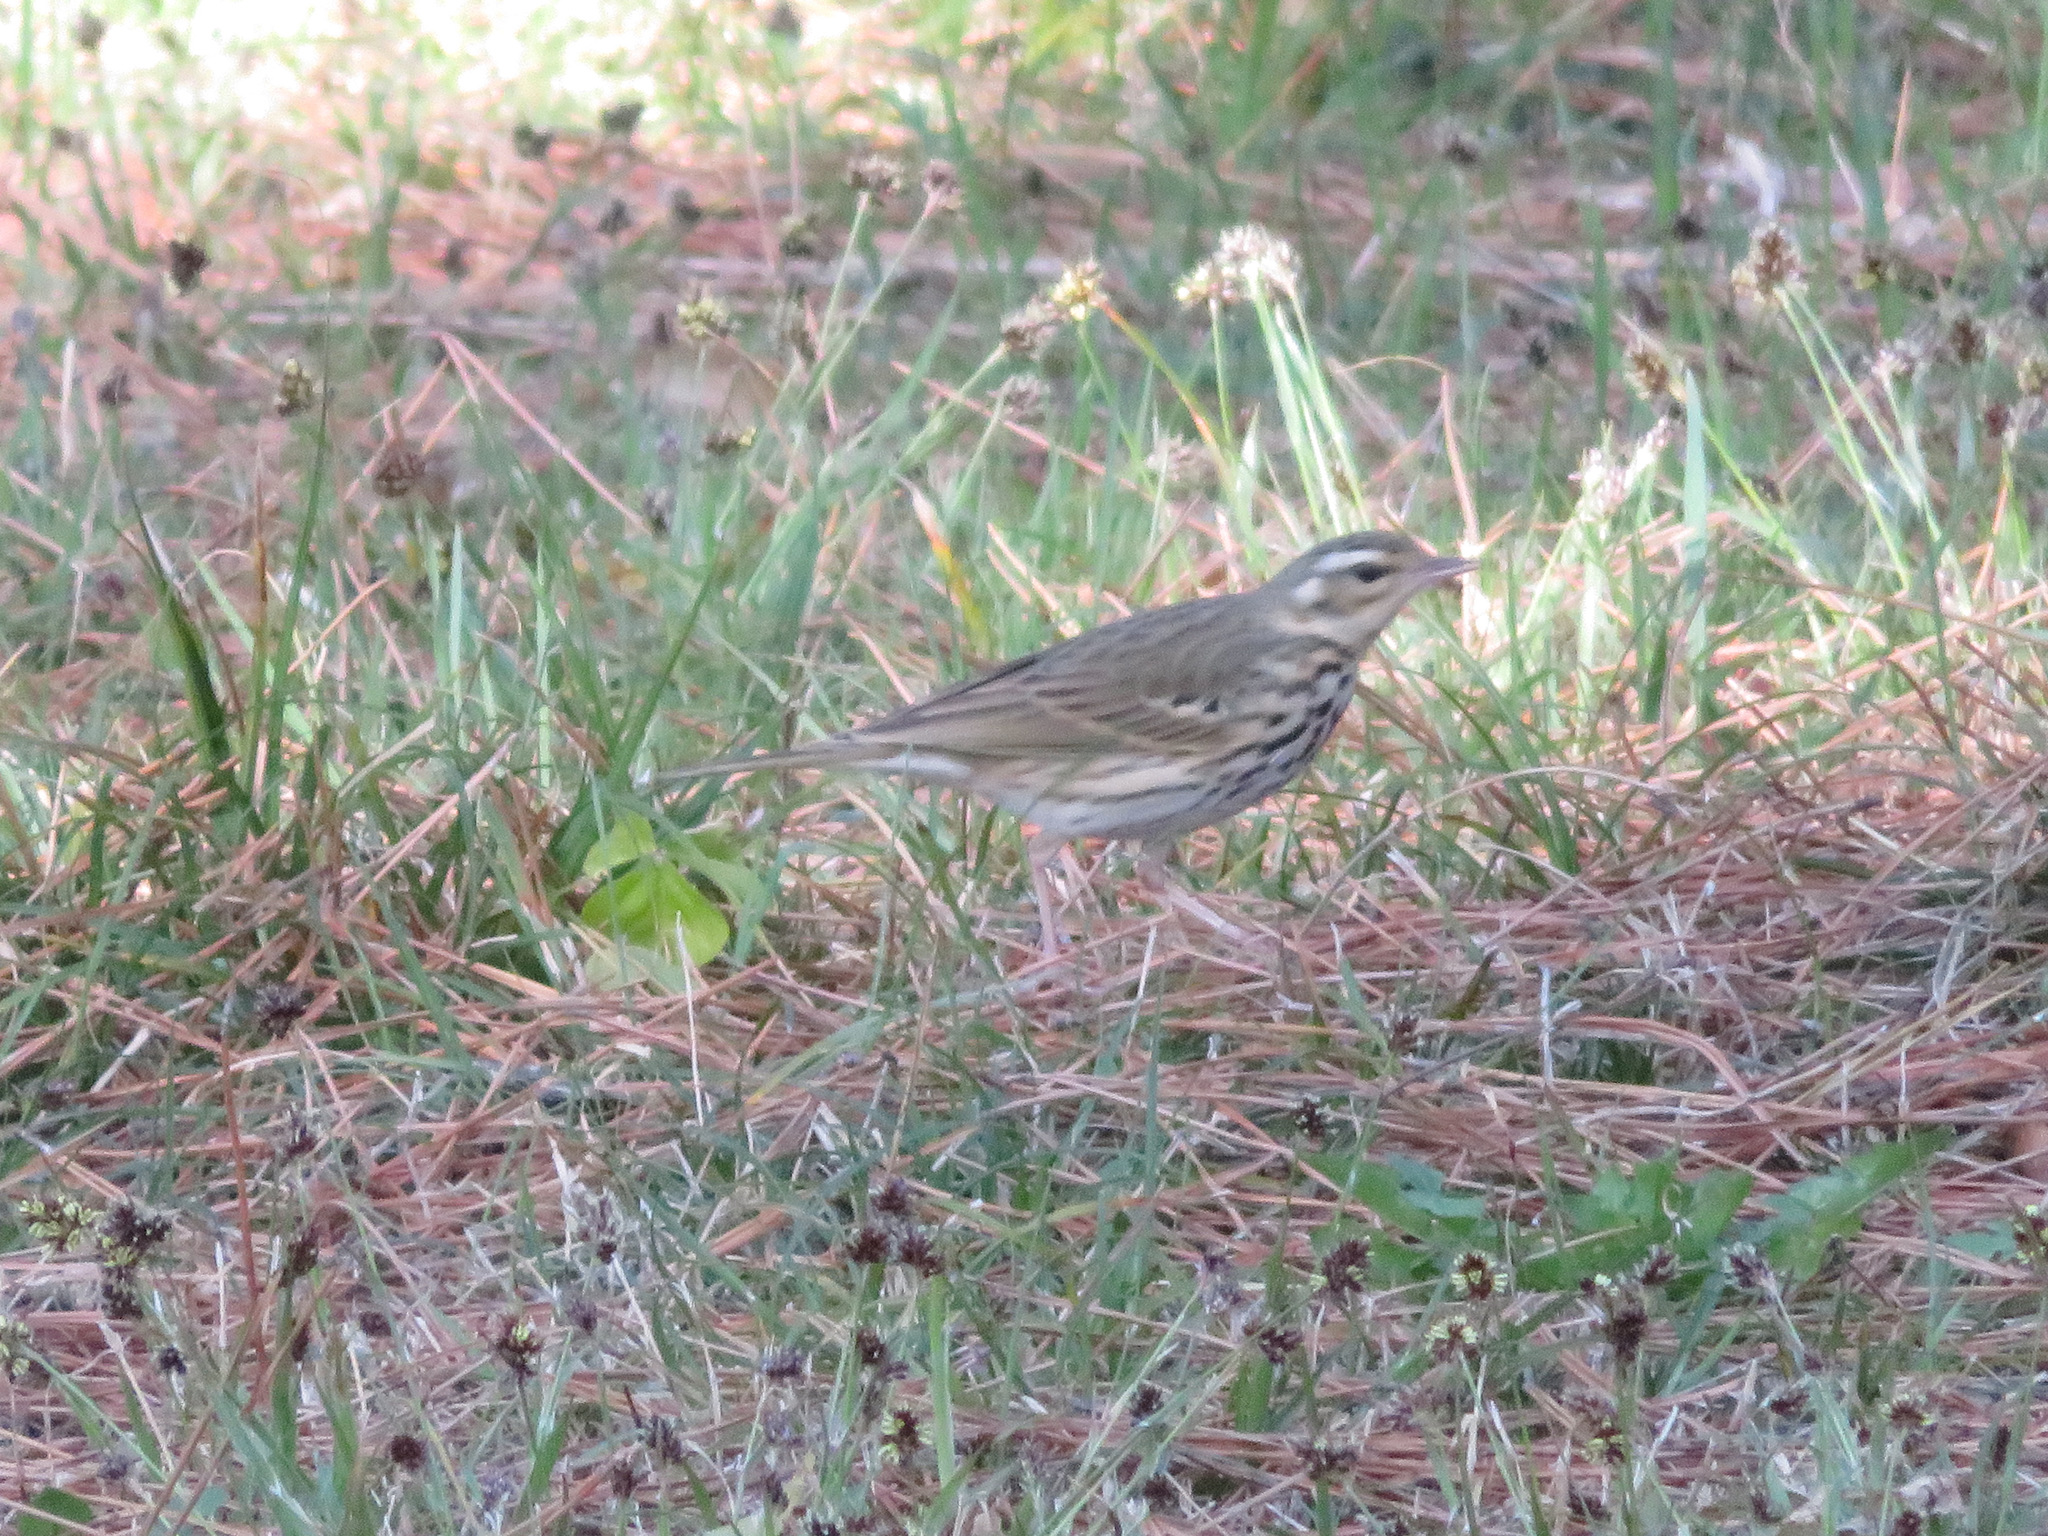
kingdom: Animalia
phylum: Chordata
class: Aves
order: Passeriformes
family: Motacillidae
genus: Anthus
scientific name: Anthus hodgsoni
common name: Olive-backed pipit
